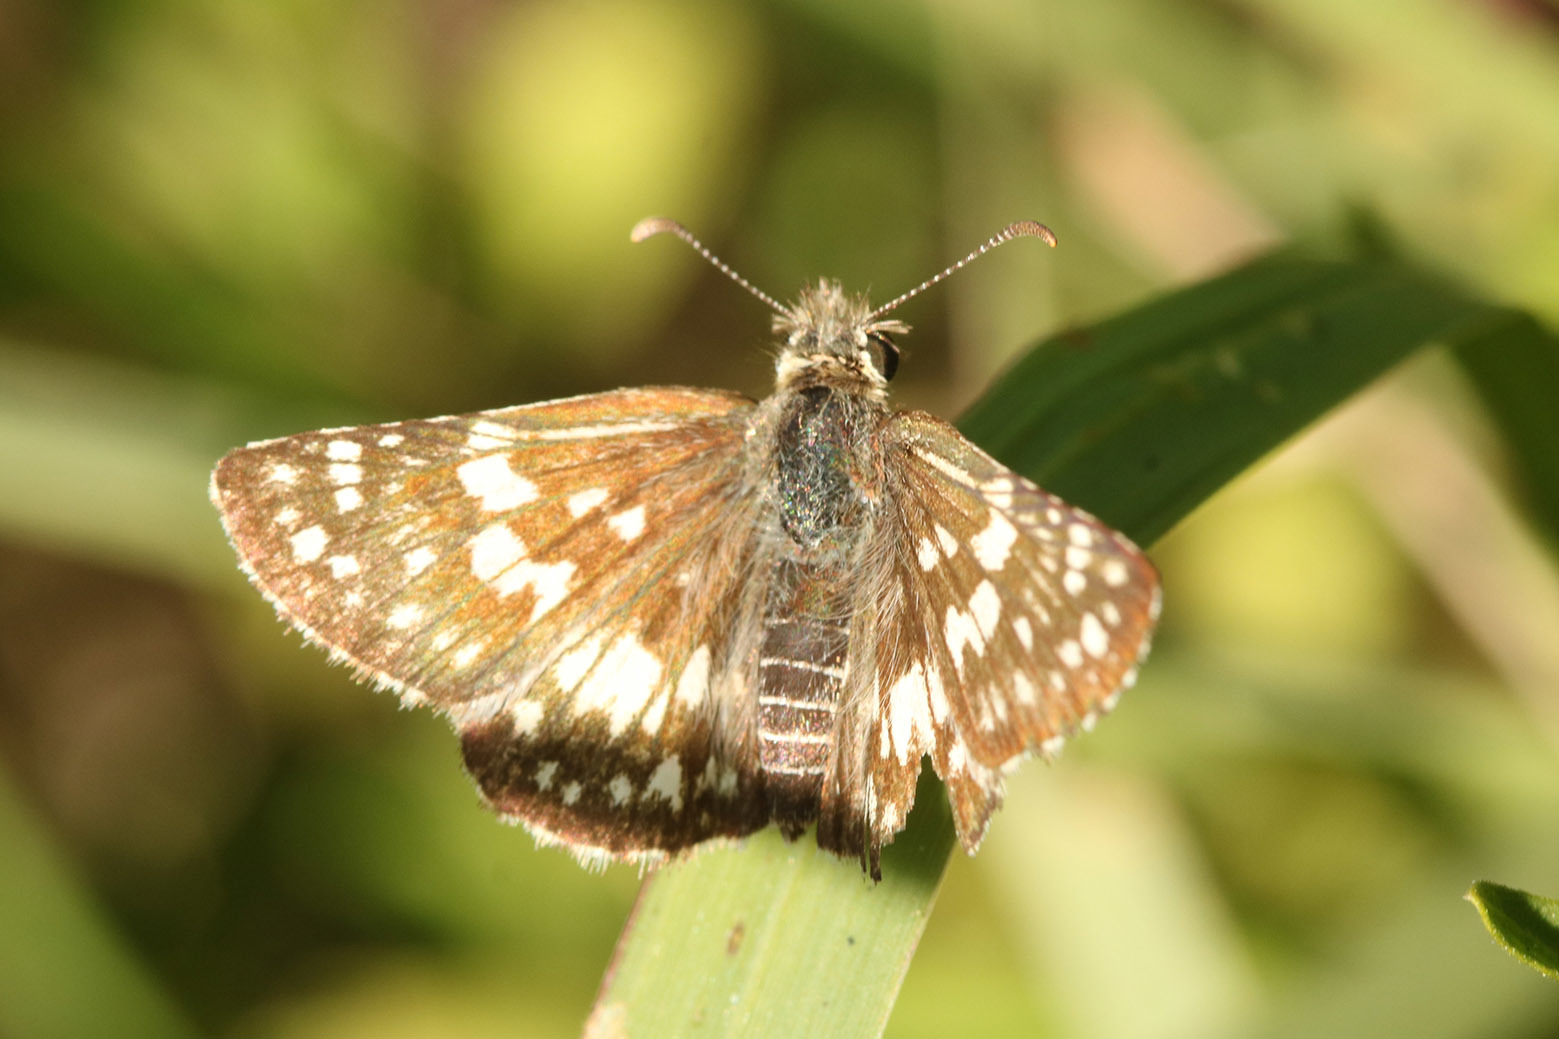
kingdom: Animalia
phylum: Arthropoda
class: Insecta
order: Lepidoptera
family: Hesperiidae
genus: Burnsius
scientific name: Burnsius orcynoides
